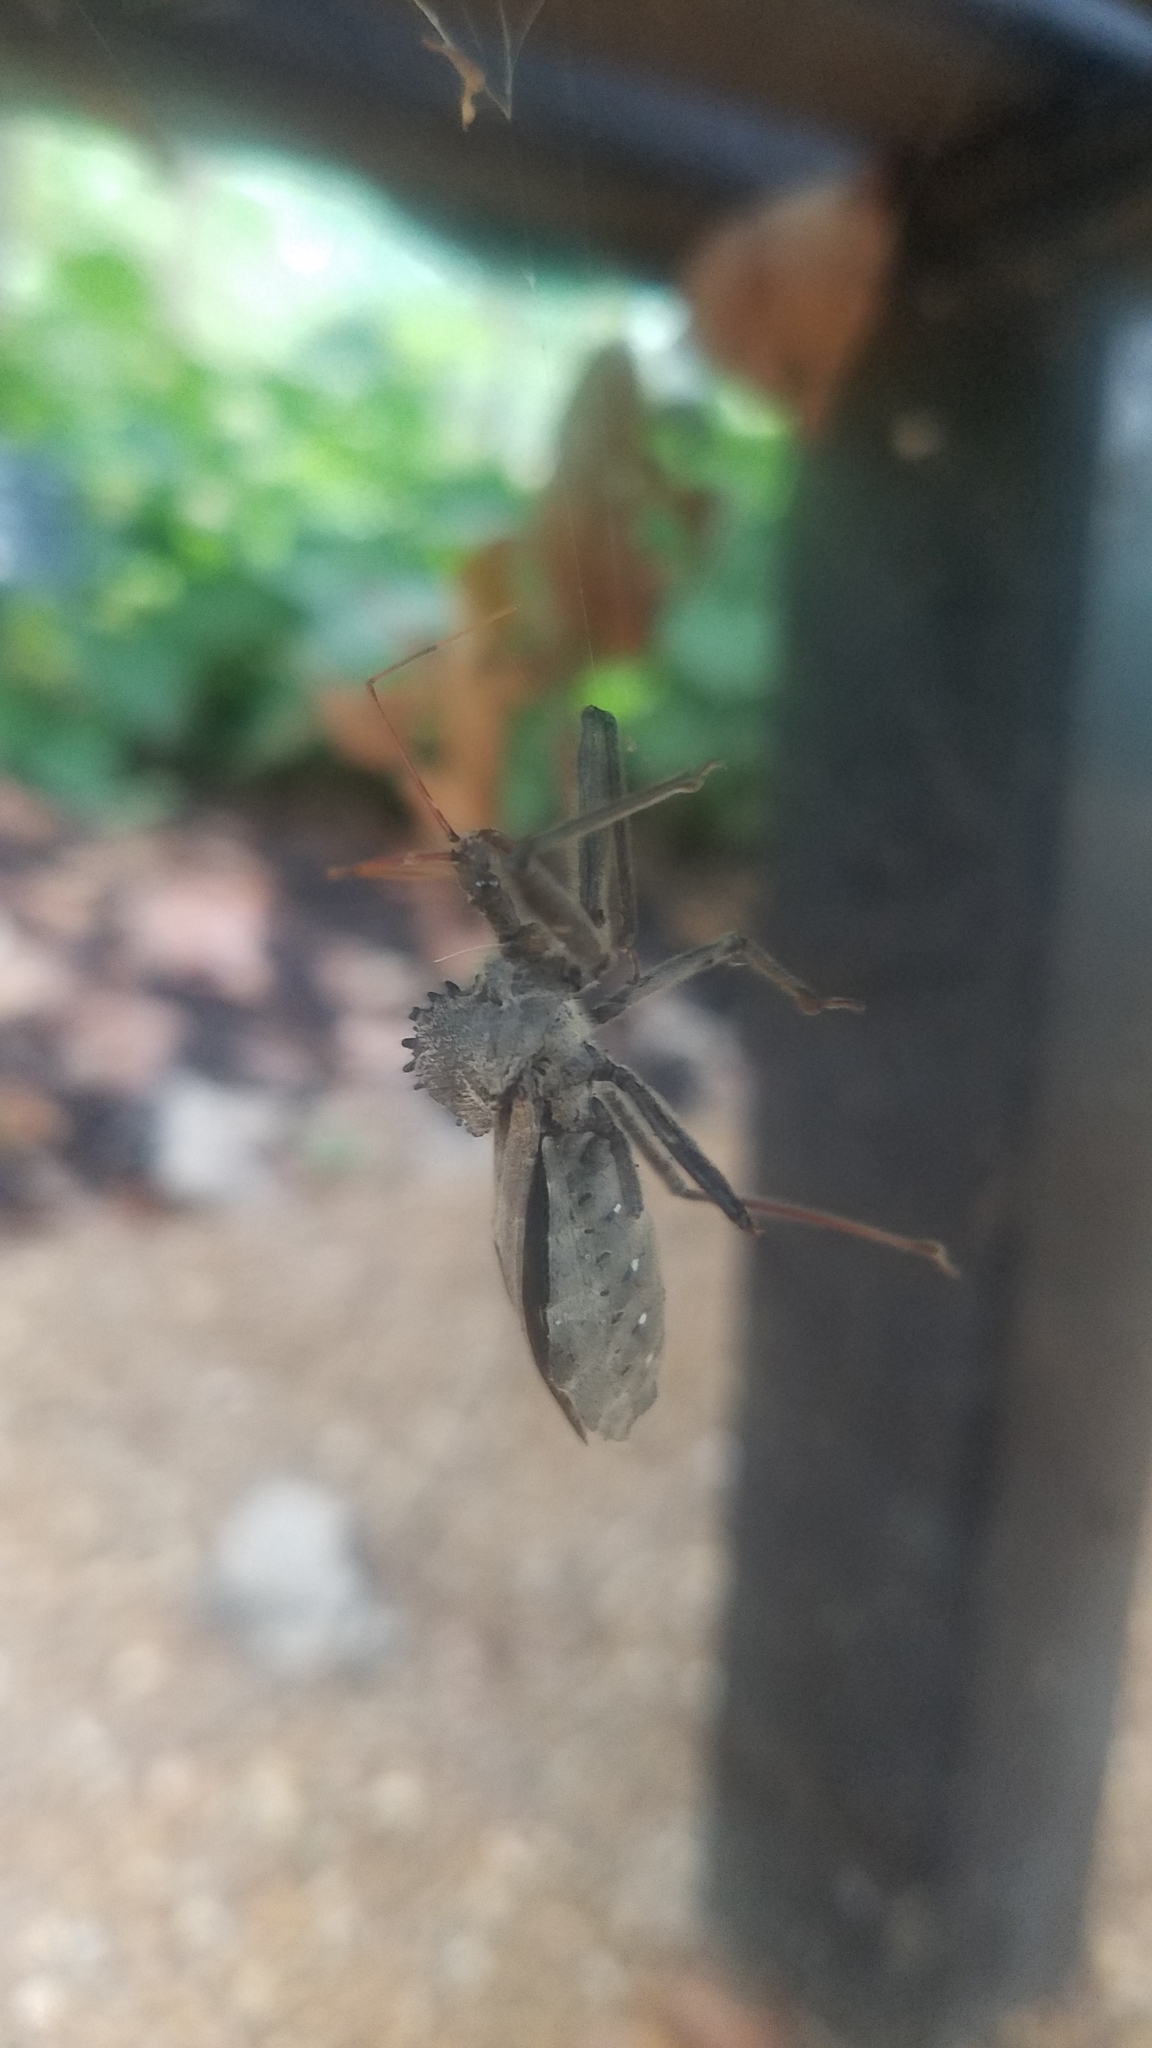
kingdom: Animalia
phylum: Arthropoda
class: Insecta
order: Hemiptera
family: Reduviidae
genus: Arilus
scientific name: Arilus cristatus
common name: North american wheel bug
